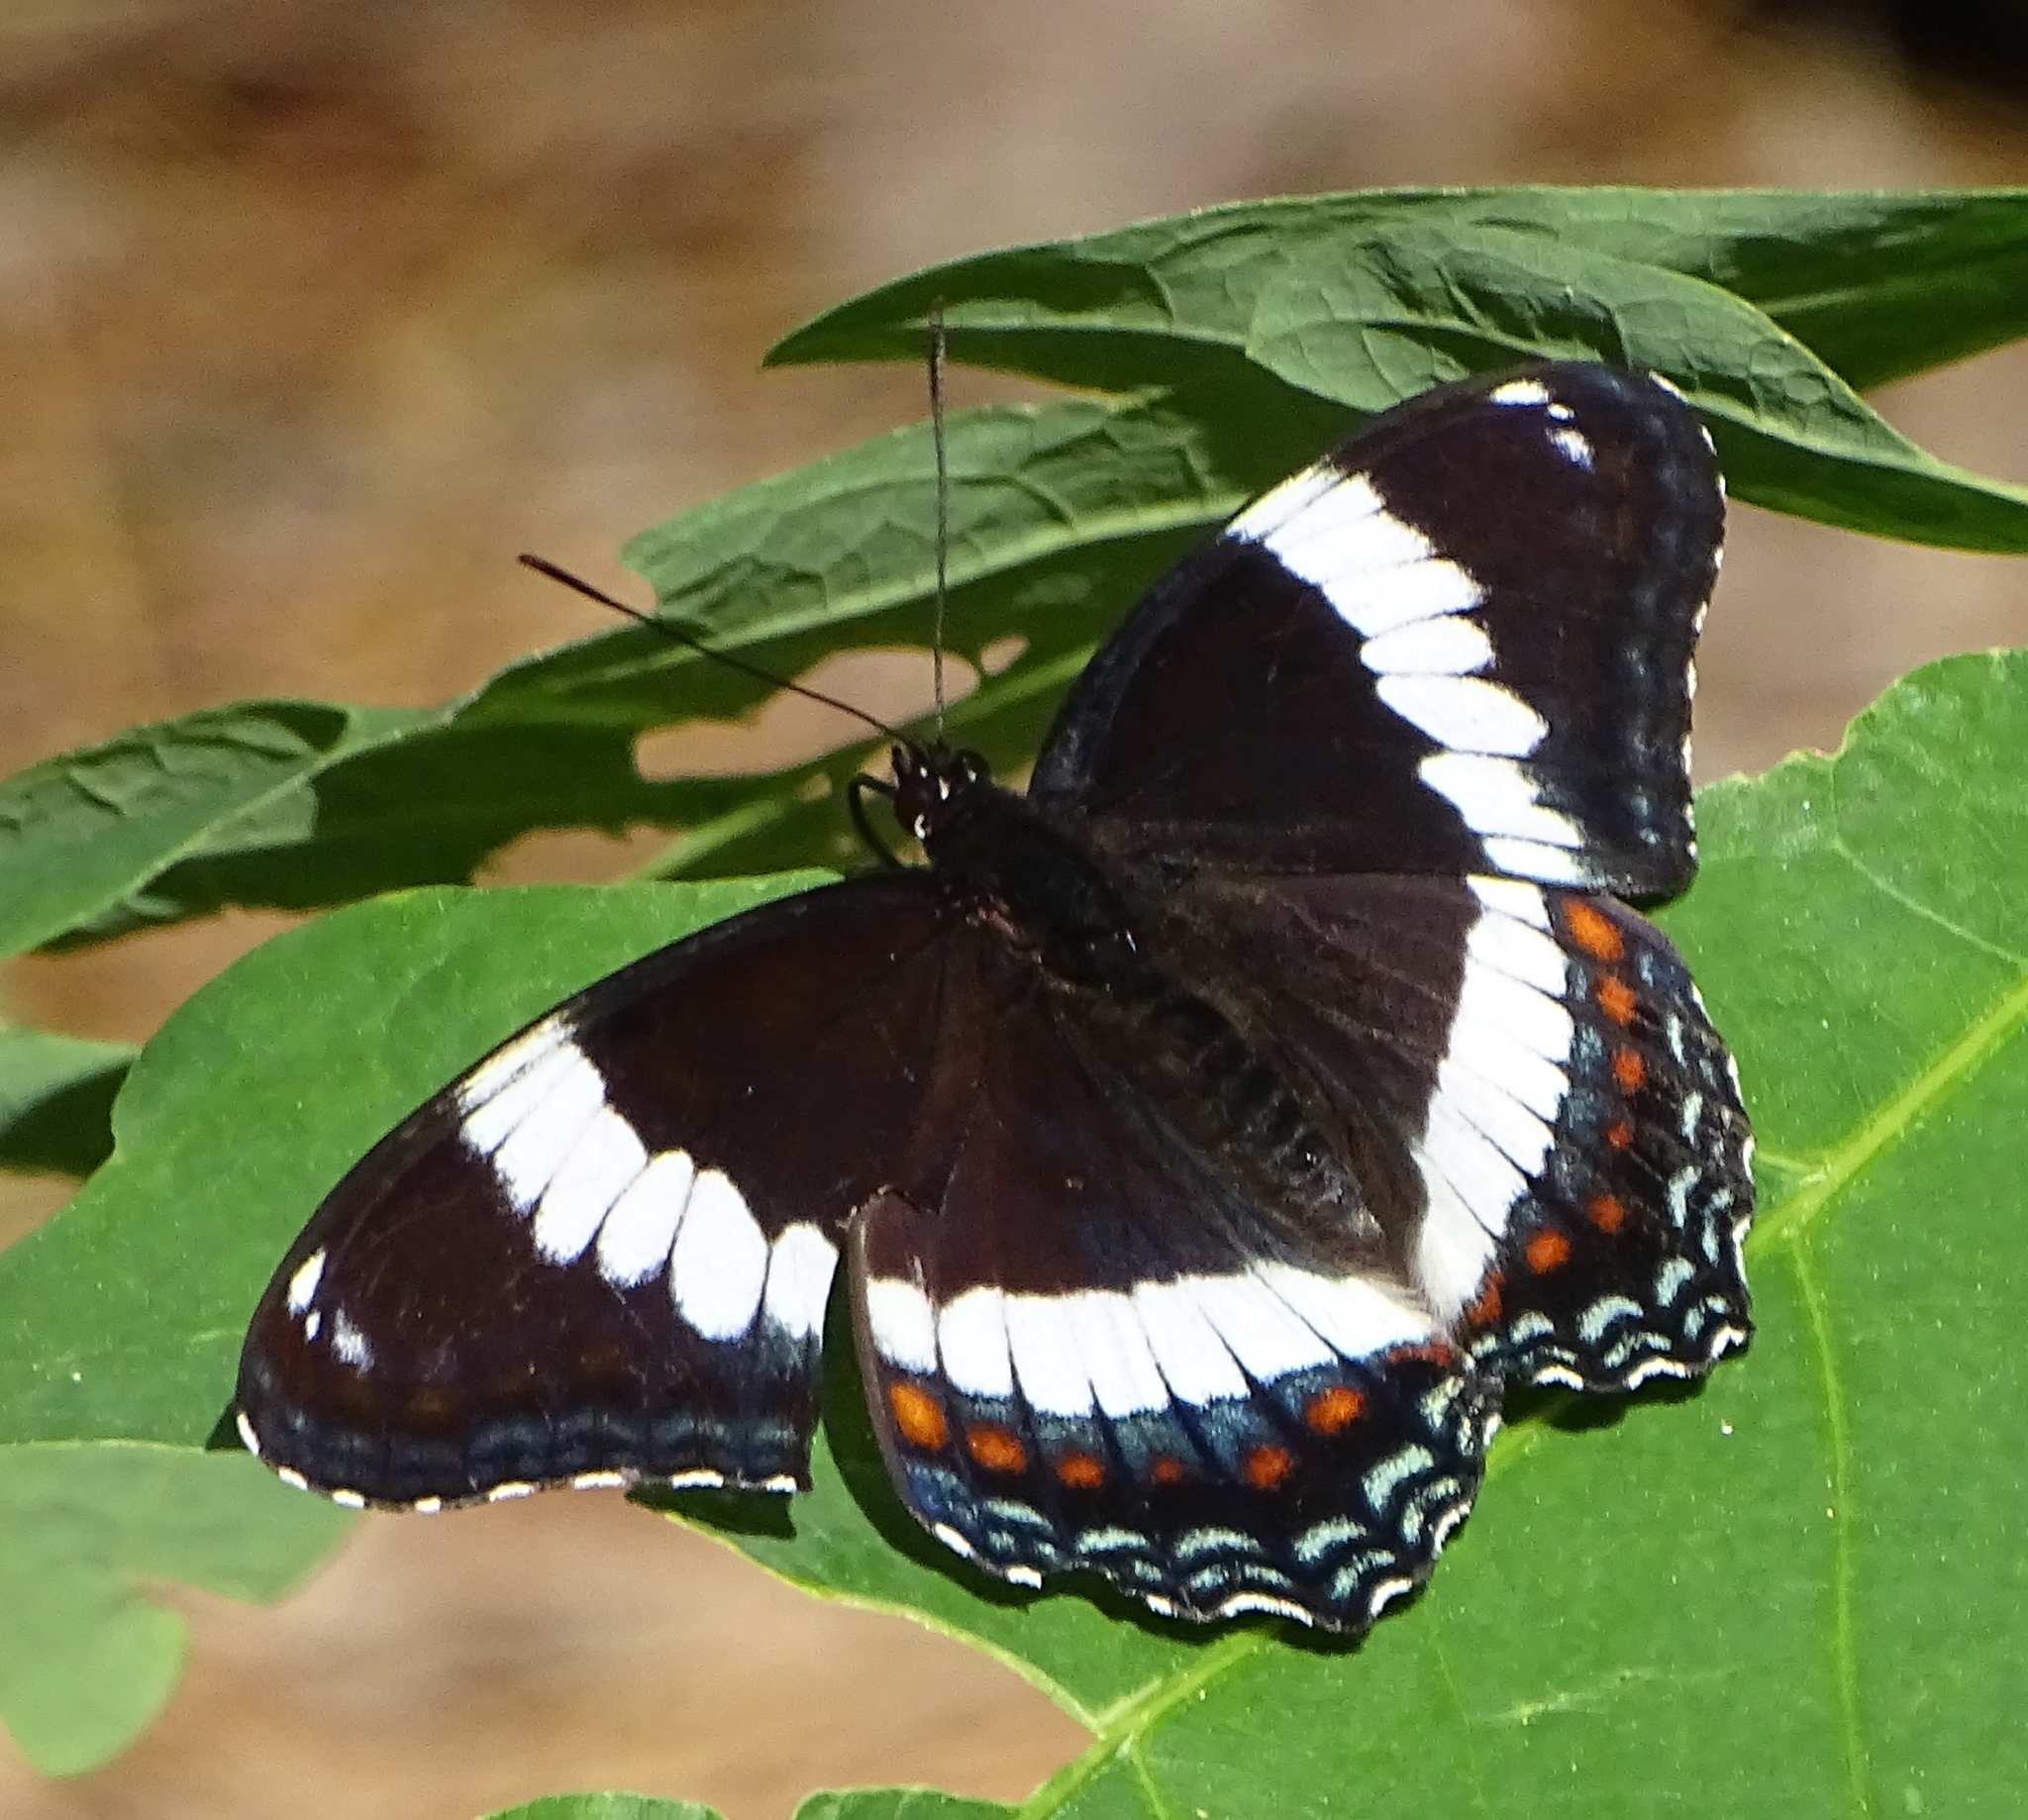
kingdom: Animalia
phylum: Arthropoda
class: Insecta
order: Lepidoptera
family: Nymphalidae
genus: Limenitis
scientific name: Limenitis arthemis
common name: Red-spotted admiral
